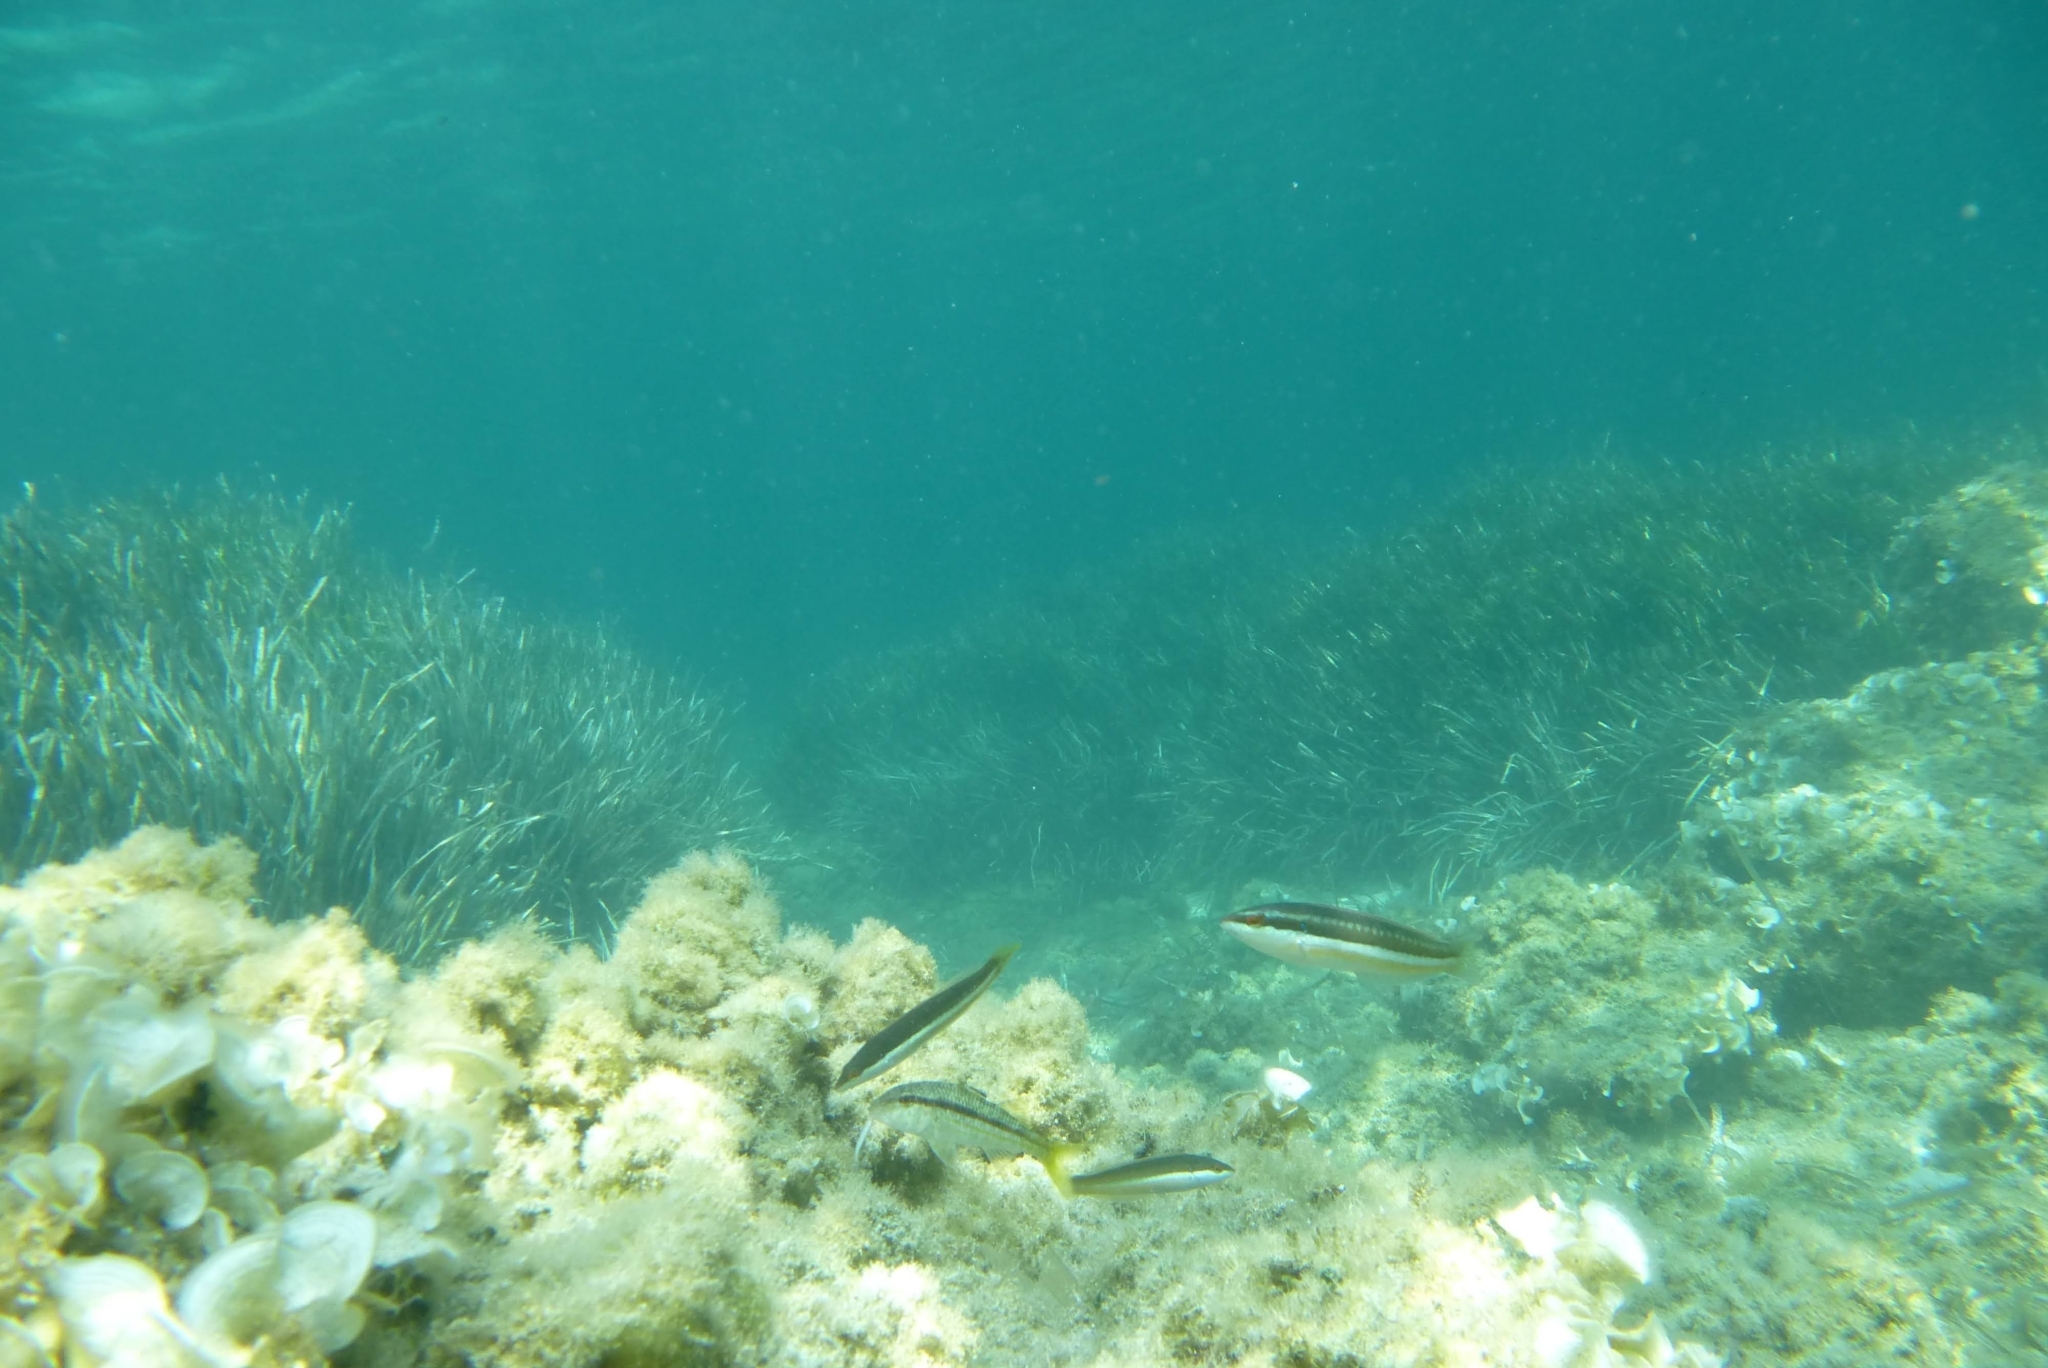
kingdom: Animalia
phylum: Chordata
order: Perciformes
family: Labridae
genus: Coris
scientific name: Coris julis
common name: Rainbow wrasse
